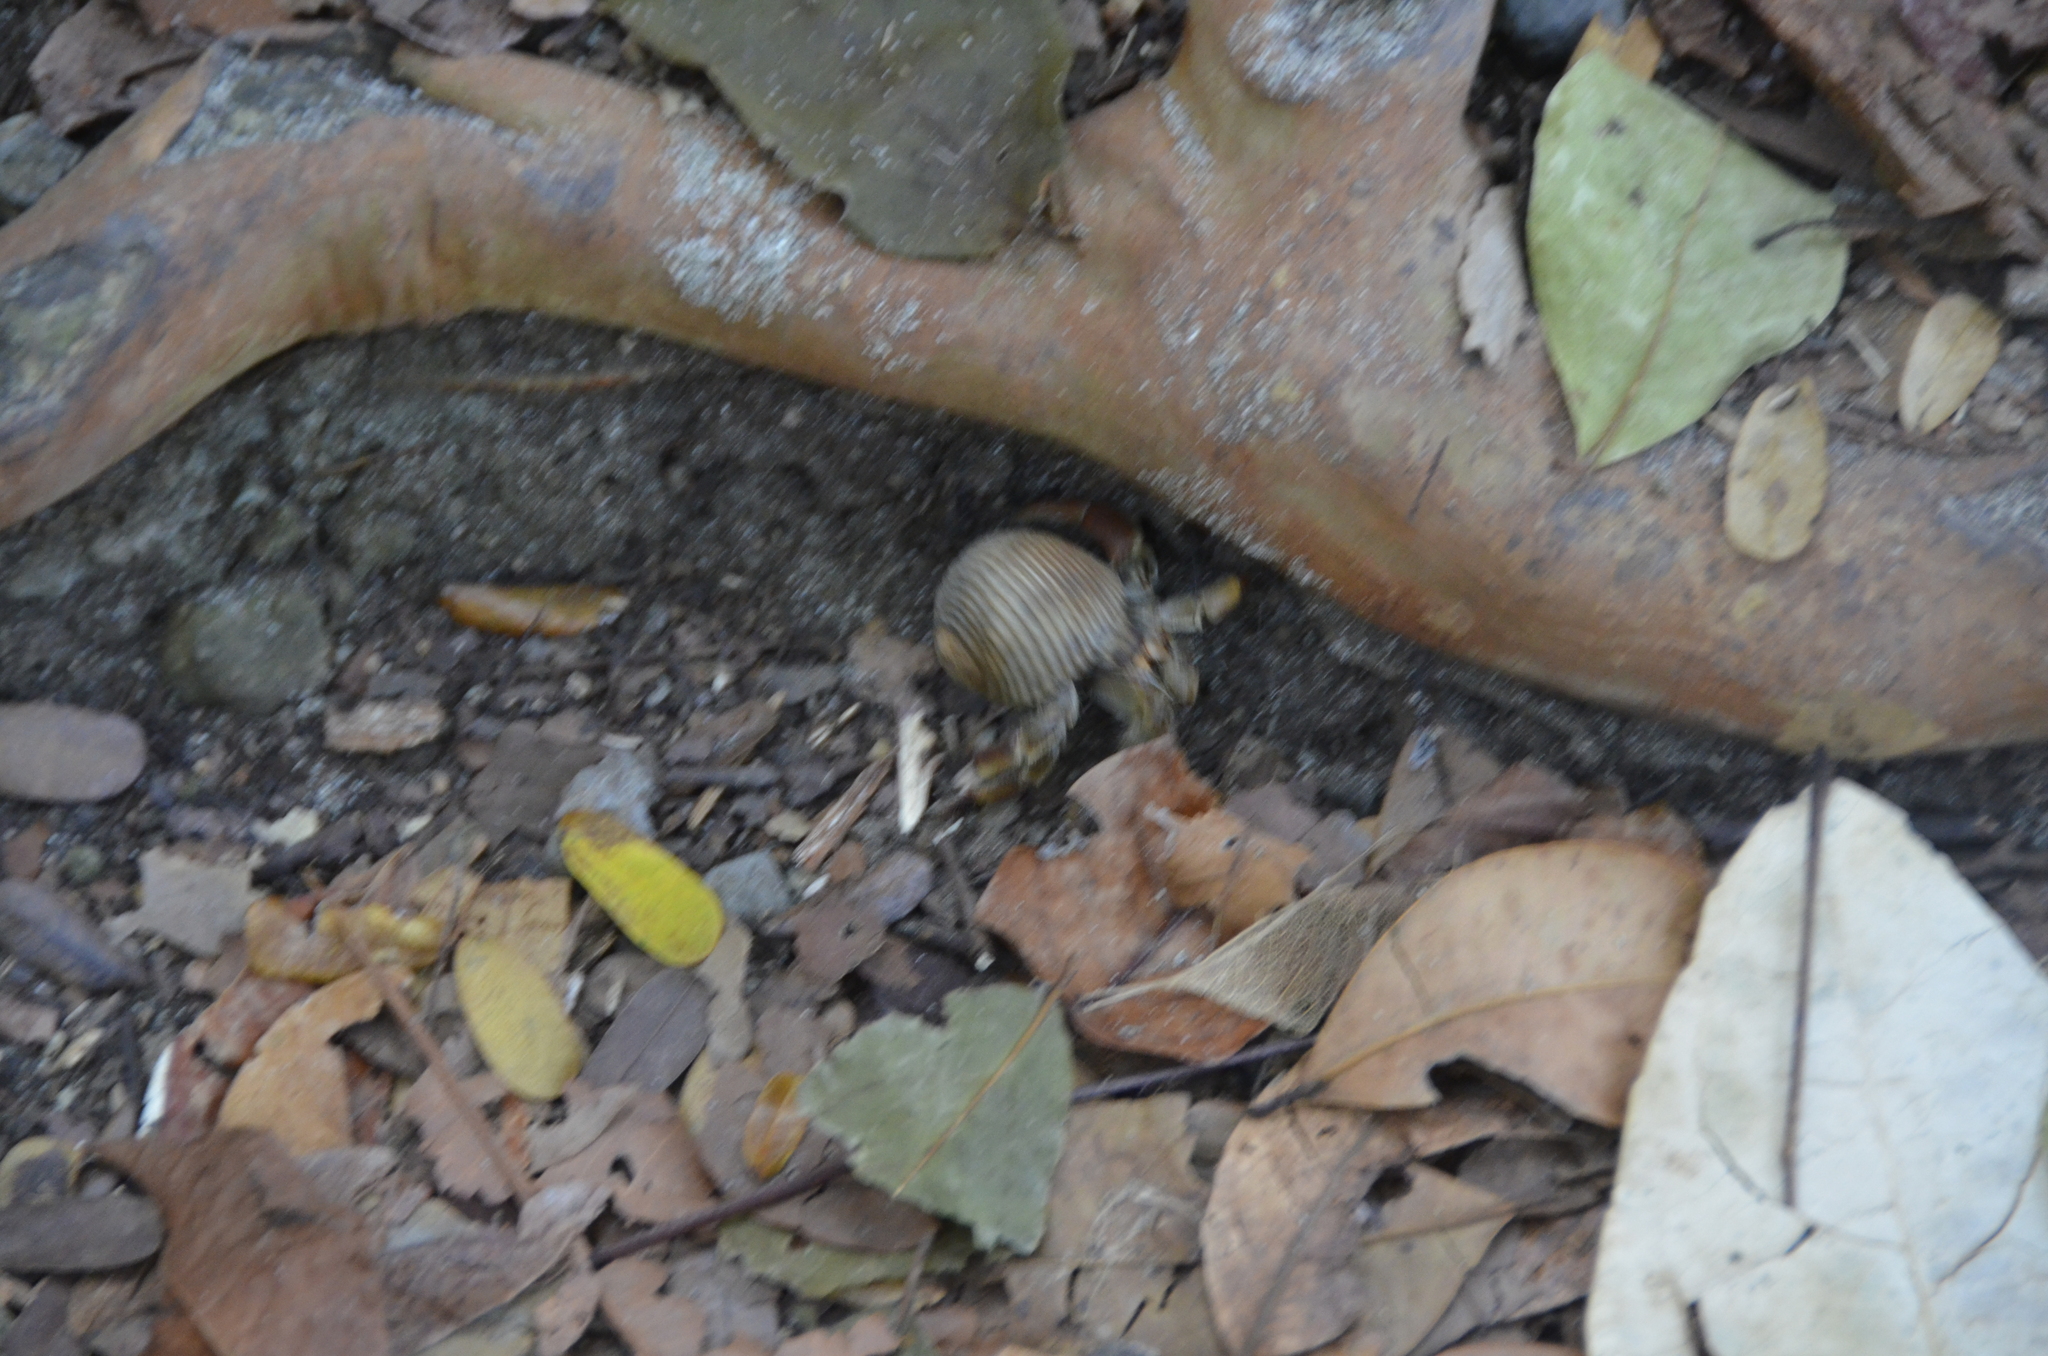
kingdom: Animalia
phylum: Arthropoda
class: Malacostraca
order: Decapoda
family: Coenobitidae
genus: Coenobita
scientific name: Coenobita compressus
